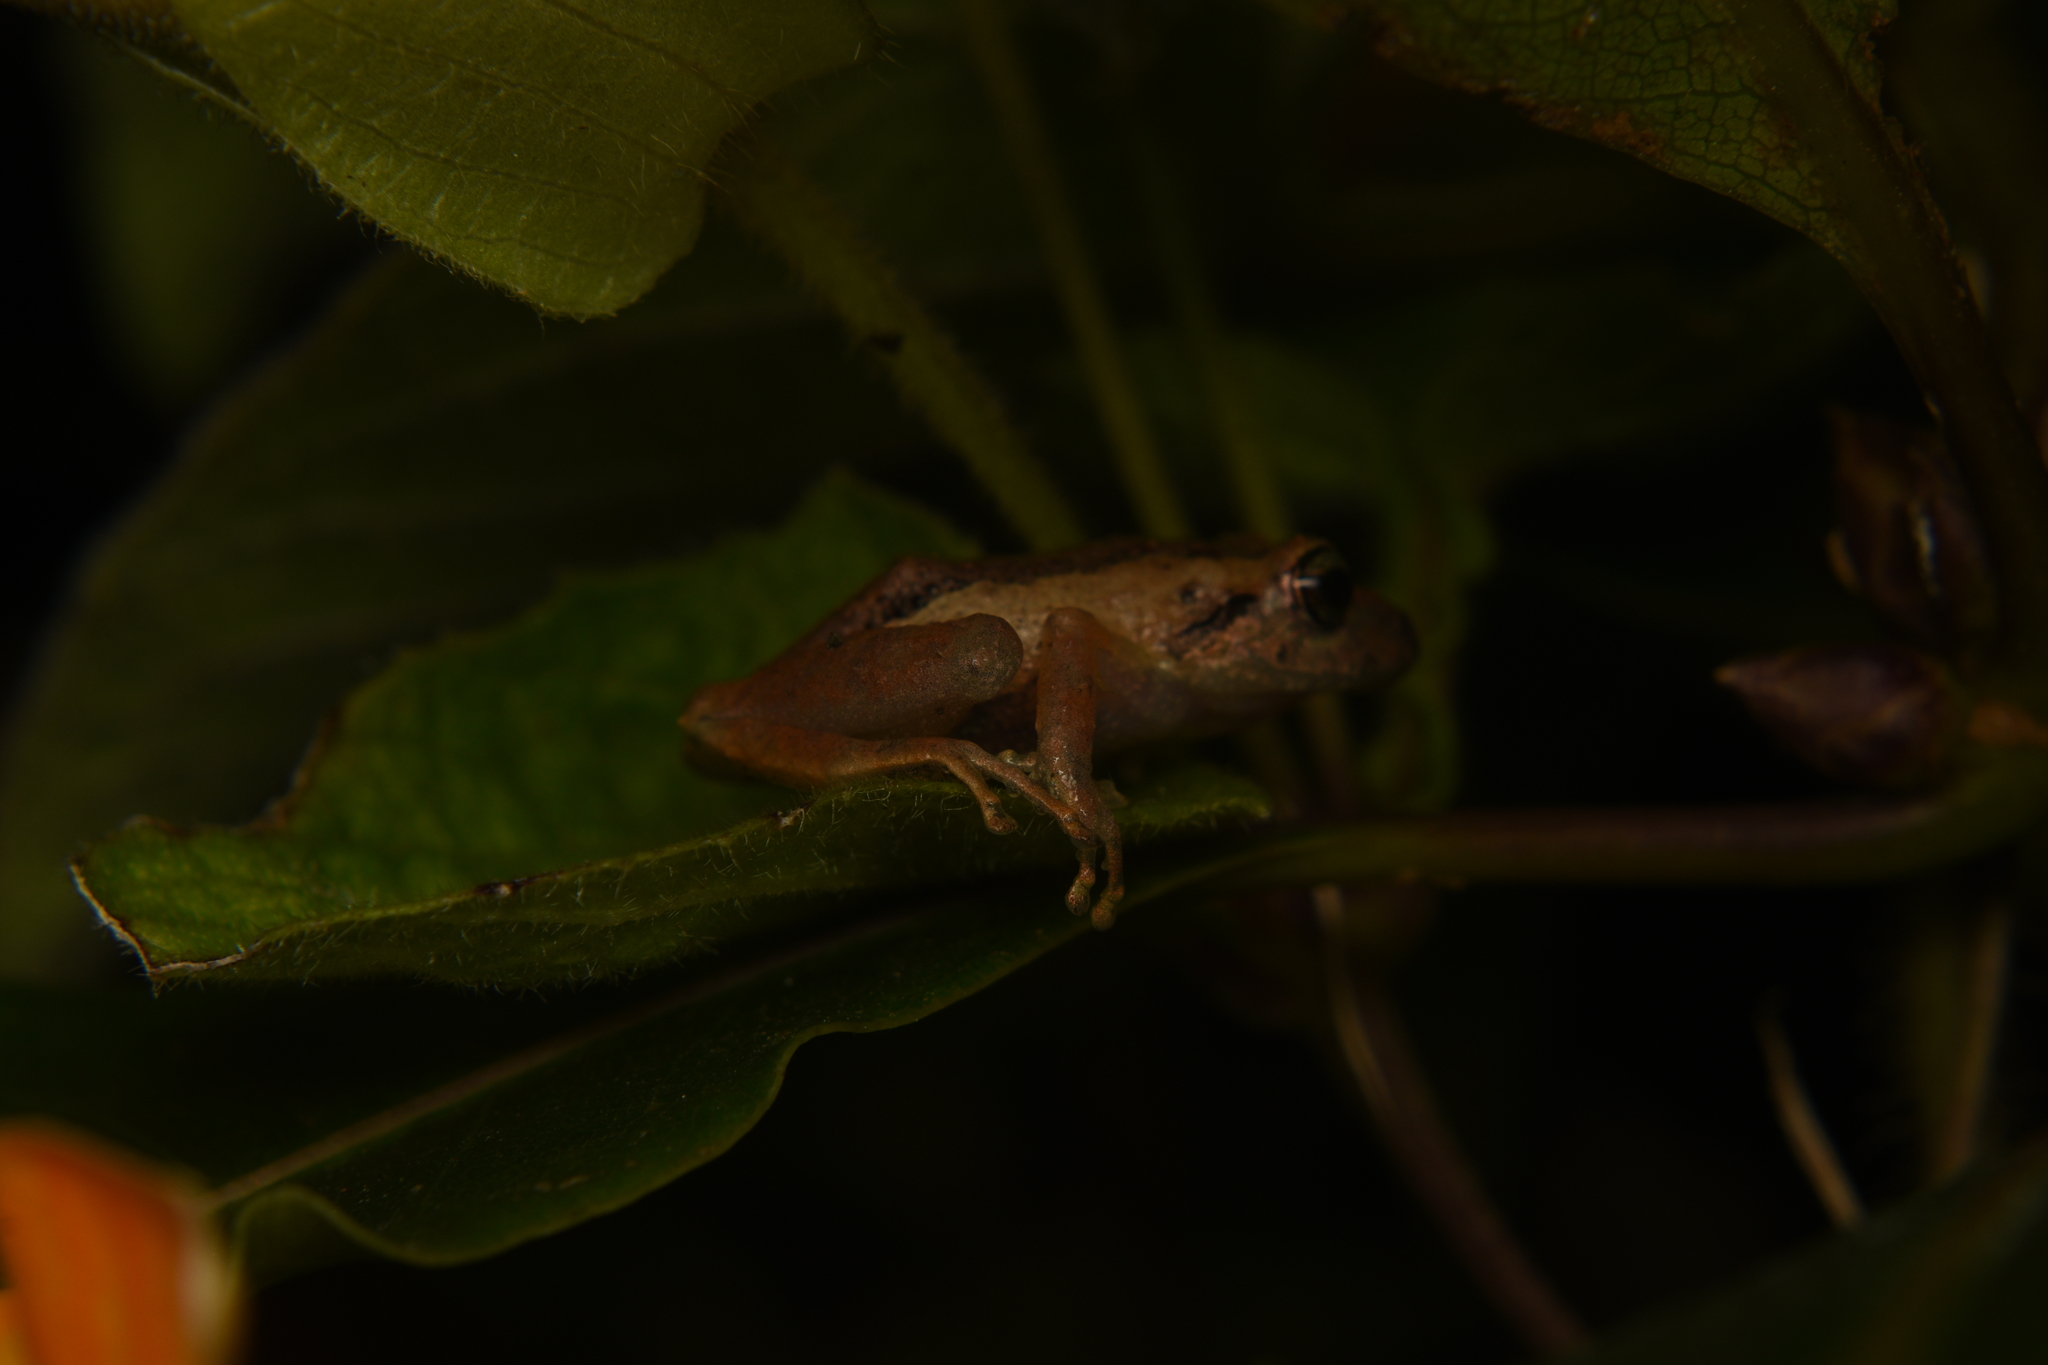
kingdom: Animalia
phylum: Chordata
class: Amphibia
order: Anura
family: Craugastoridae
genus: Pristimantis
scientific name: Pristimantis paisa
